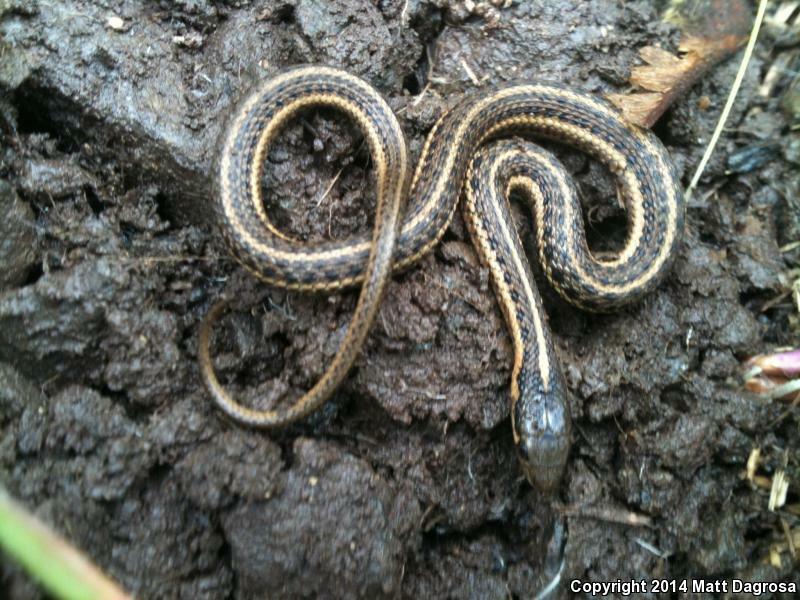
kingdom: Animalia
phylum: Chordata
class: Squamata
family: Colubridae
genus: Thamnophis
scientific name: Thamnophis ordinoides
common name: Northwestern garter snake
